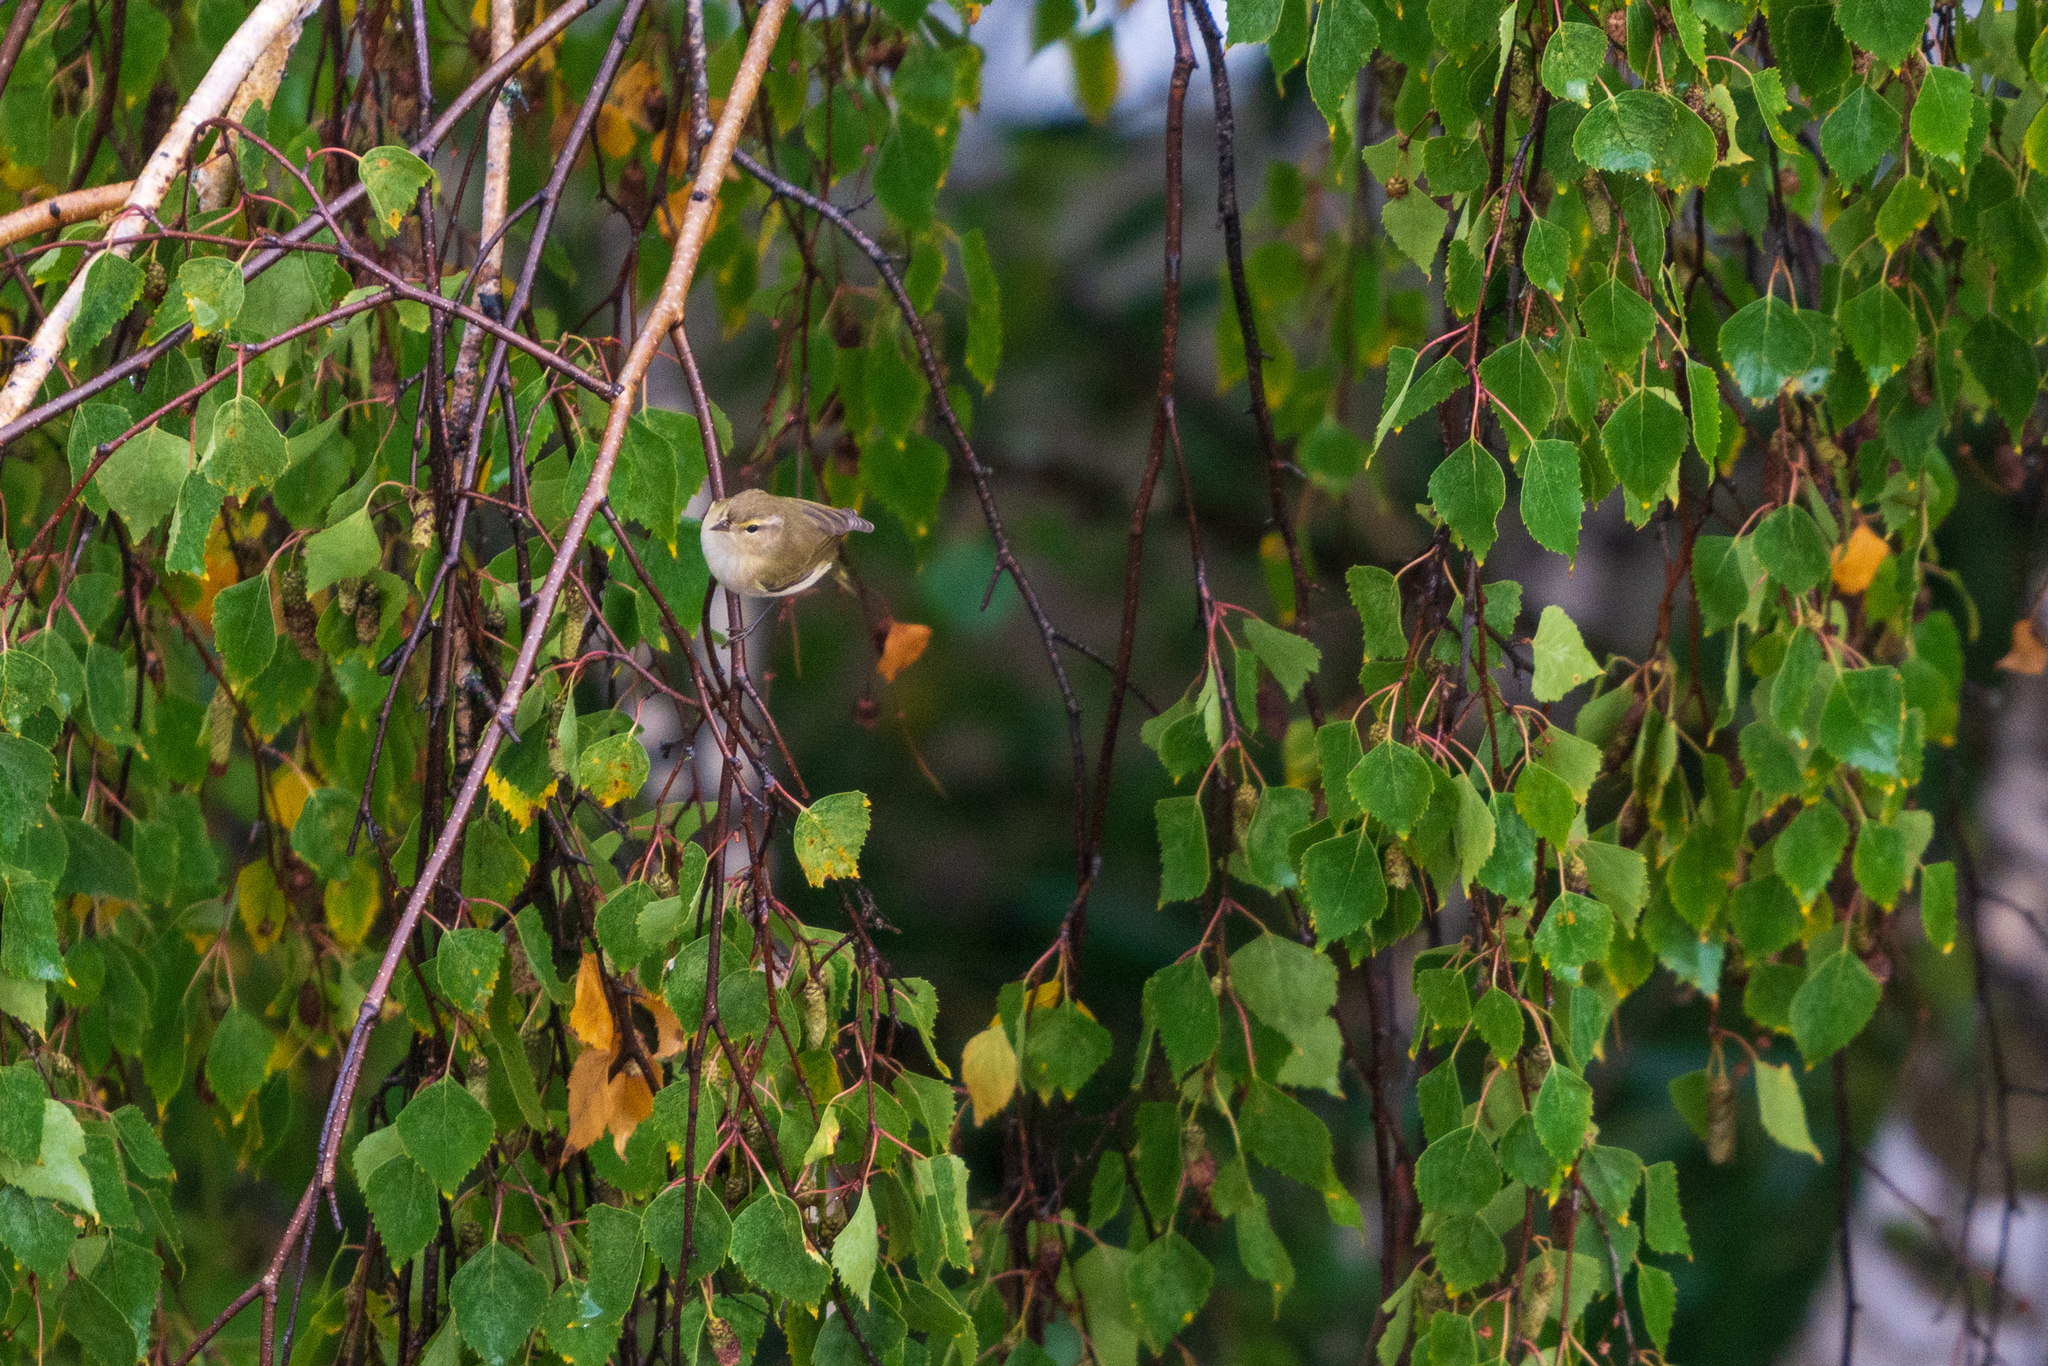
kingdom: Animalia
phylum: Chordata
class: Aves
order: Passeriformes
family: Phylloscopidae
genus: Phylloscopus
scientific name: Phylloscopus collybita
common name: Common chiffchaff
